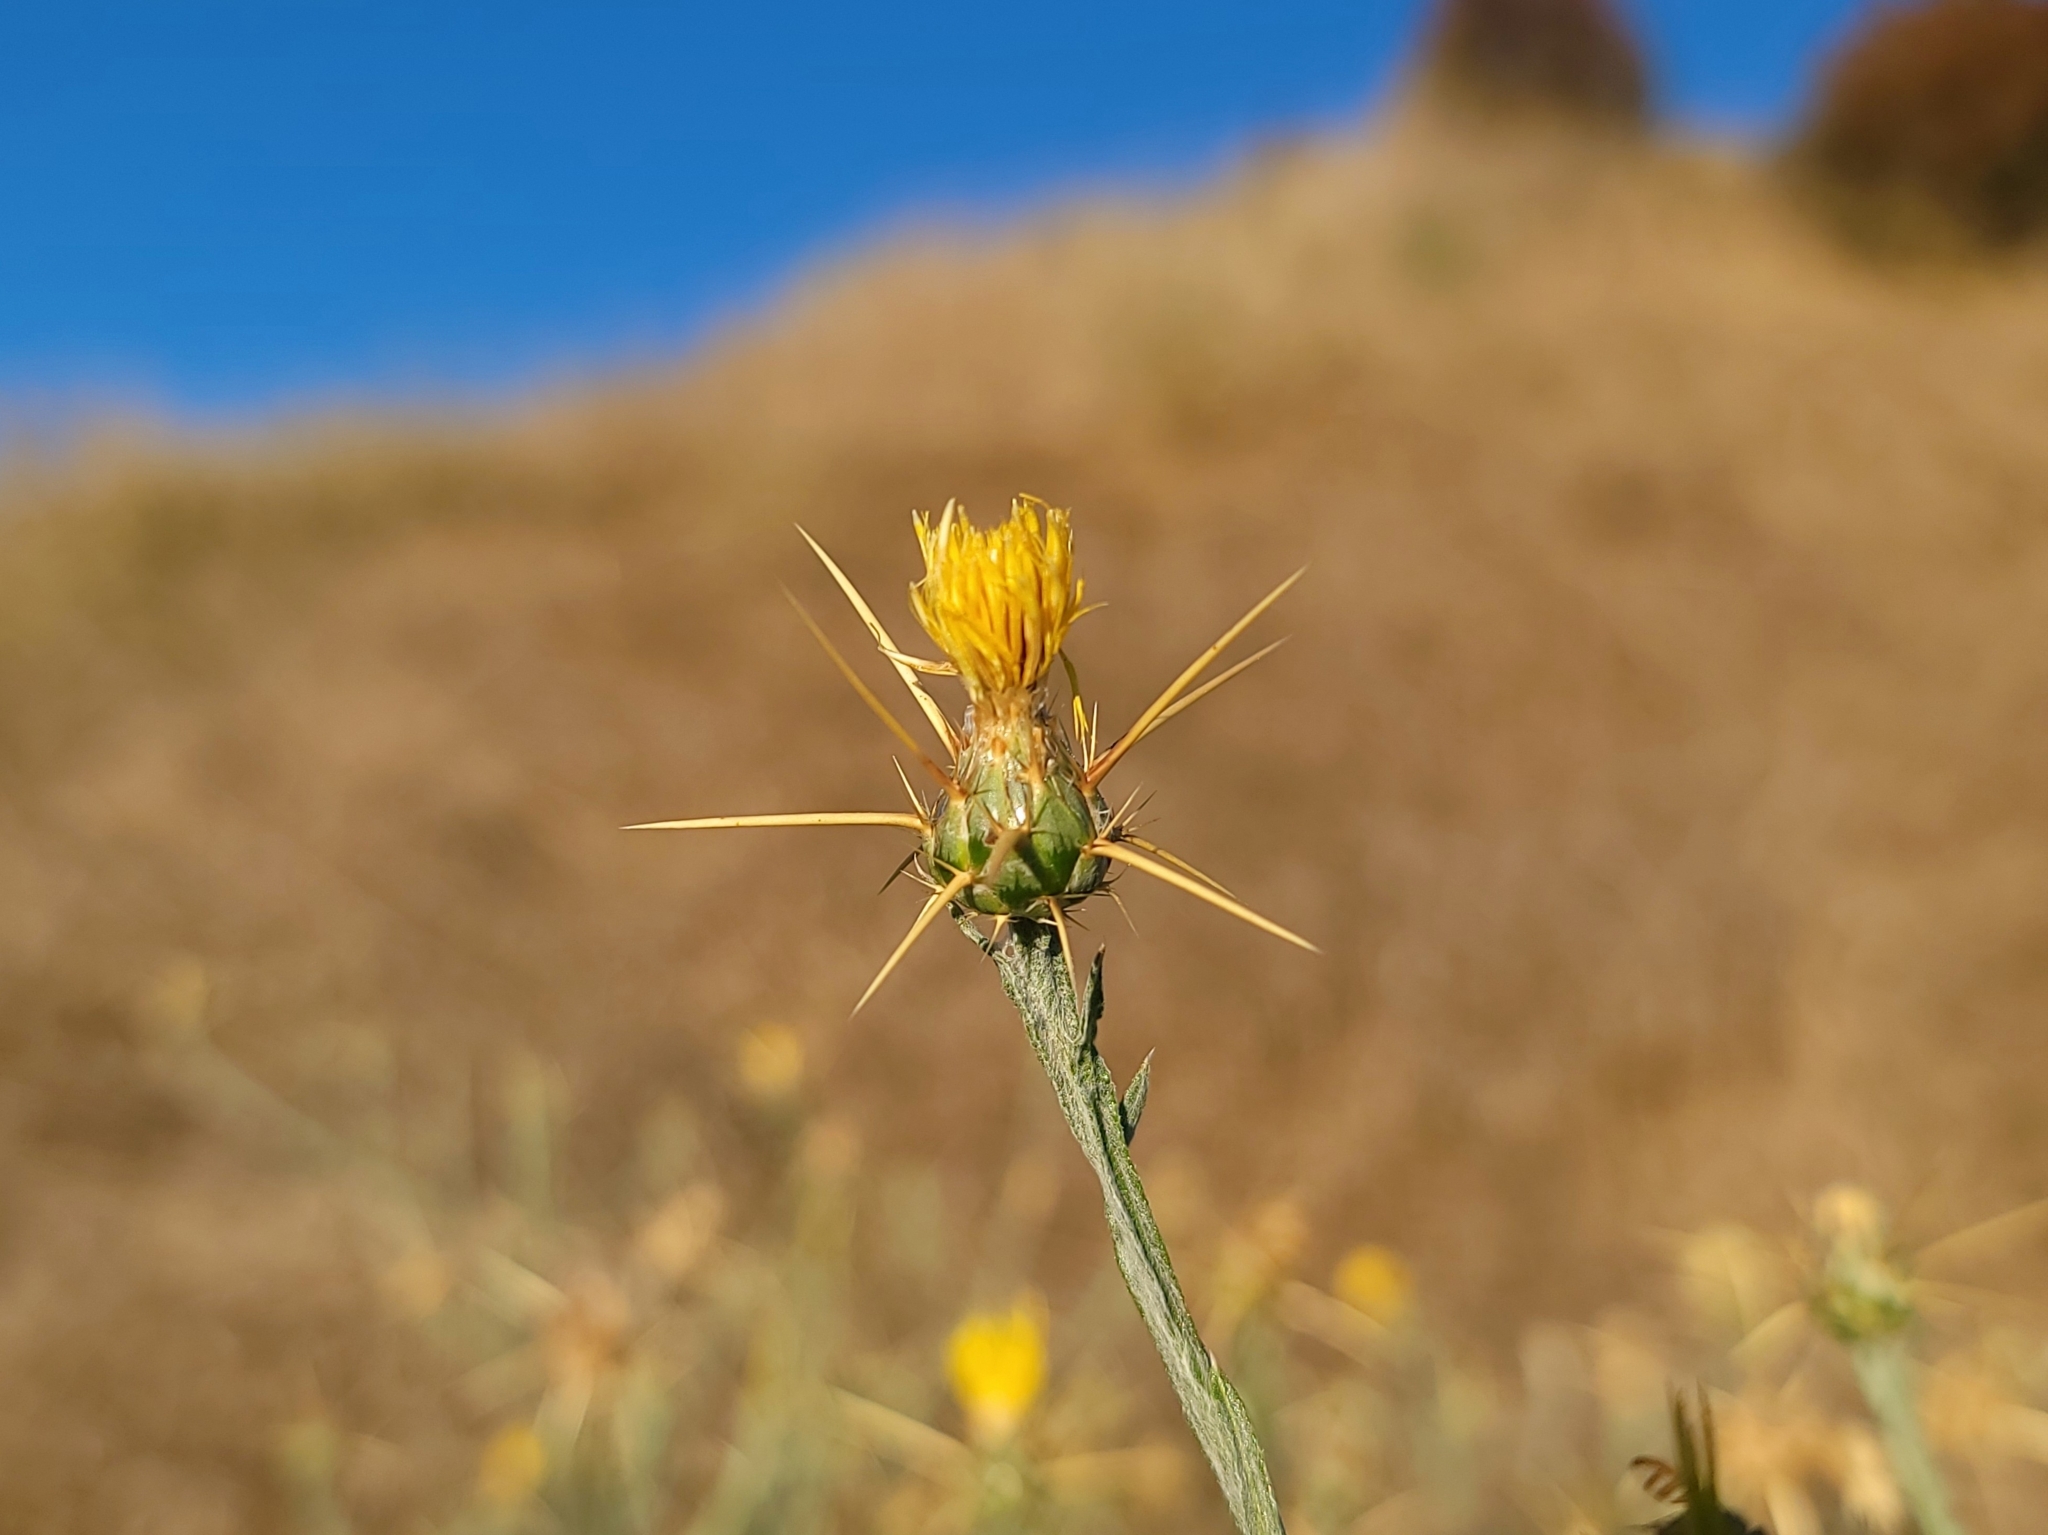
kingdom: Plantae
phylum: Tracheophyta
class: Magnoliopsida
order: Asterales
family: Asteraceae
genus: Centaurea
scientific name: Centaurea solstitialis
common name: Yellow star-thistle
